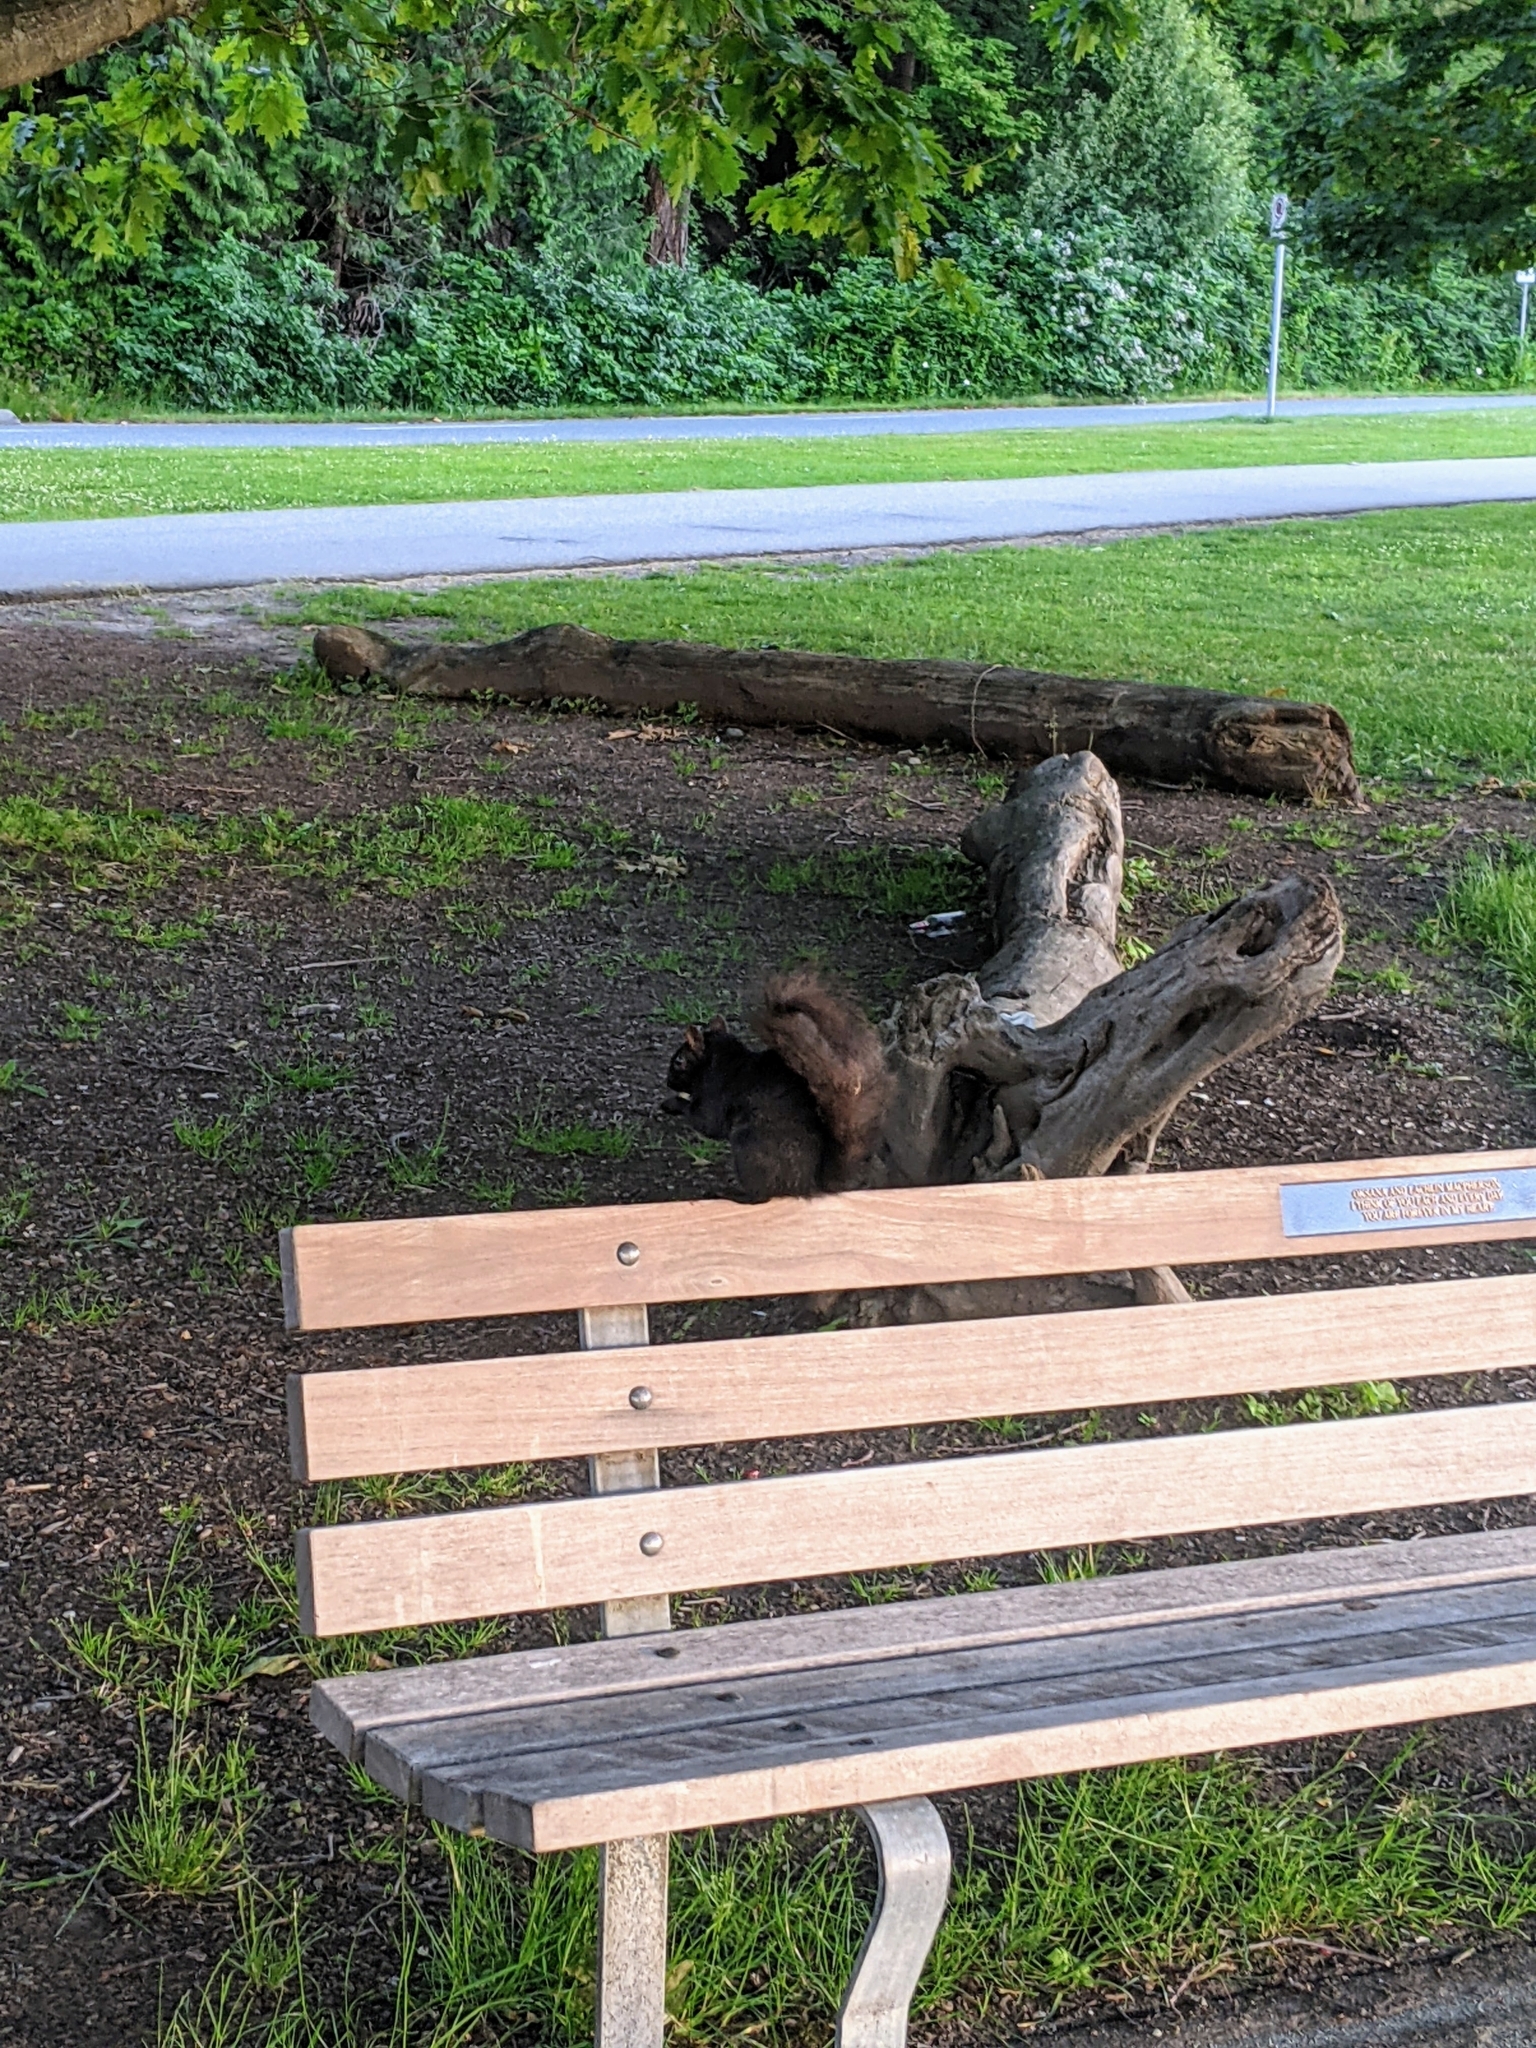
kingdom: Animalia
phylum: Chordata
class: Mammalia
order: Rodentia
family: Sciuridae
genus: Sciurus
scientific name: Sciurus carolinensis
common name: Eastern gray squirrel
